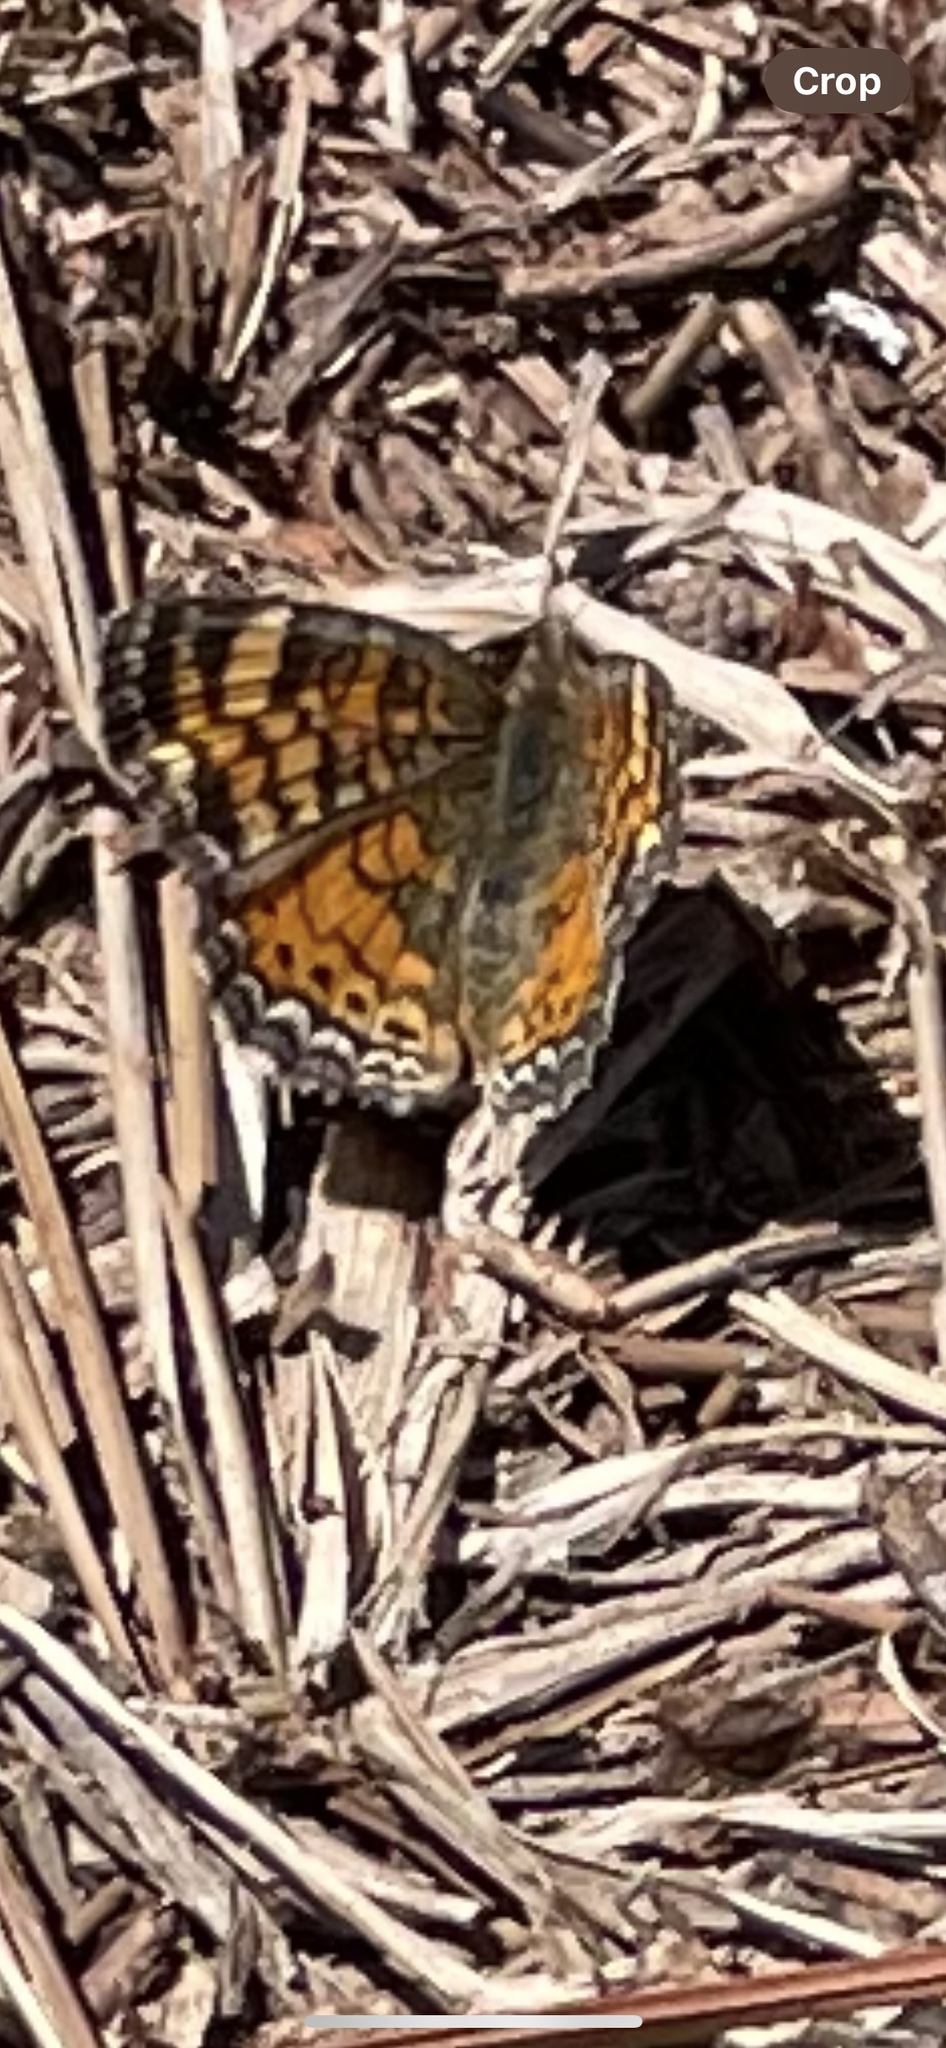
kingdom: Animalia
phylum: Arthropoda
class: Insecta
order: Lepidoptera
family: Nymphalidae
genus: Phyciodes
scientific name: Phyciodes tharos
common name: Pearl crescent
